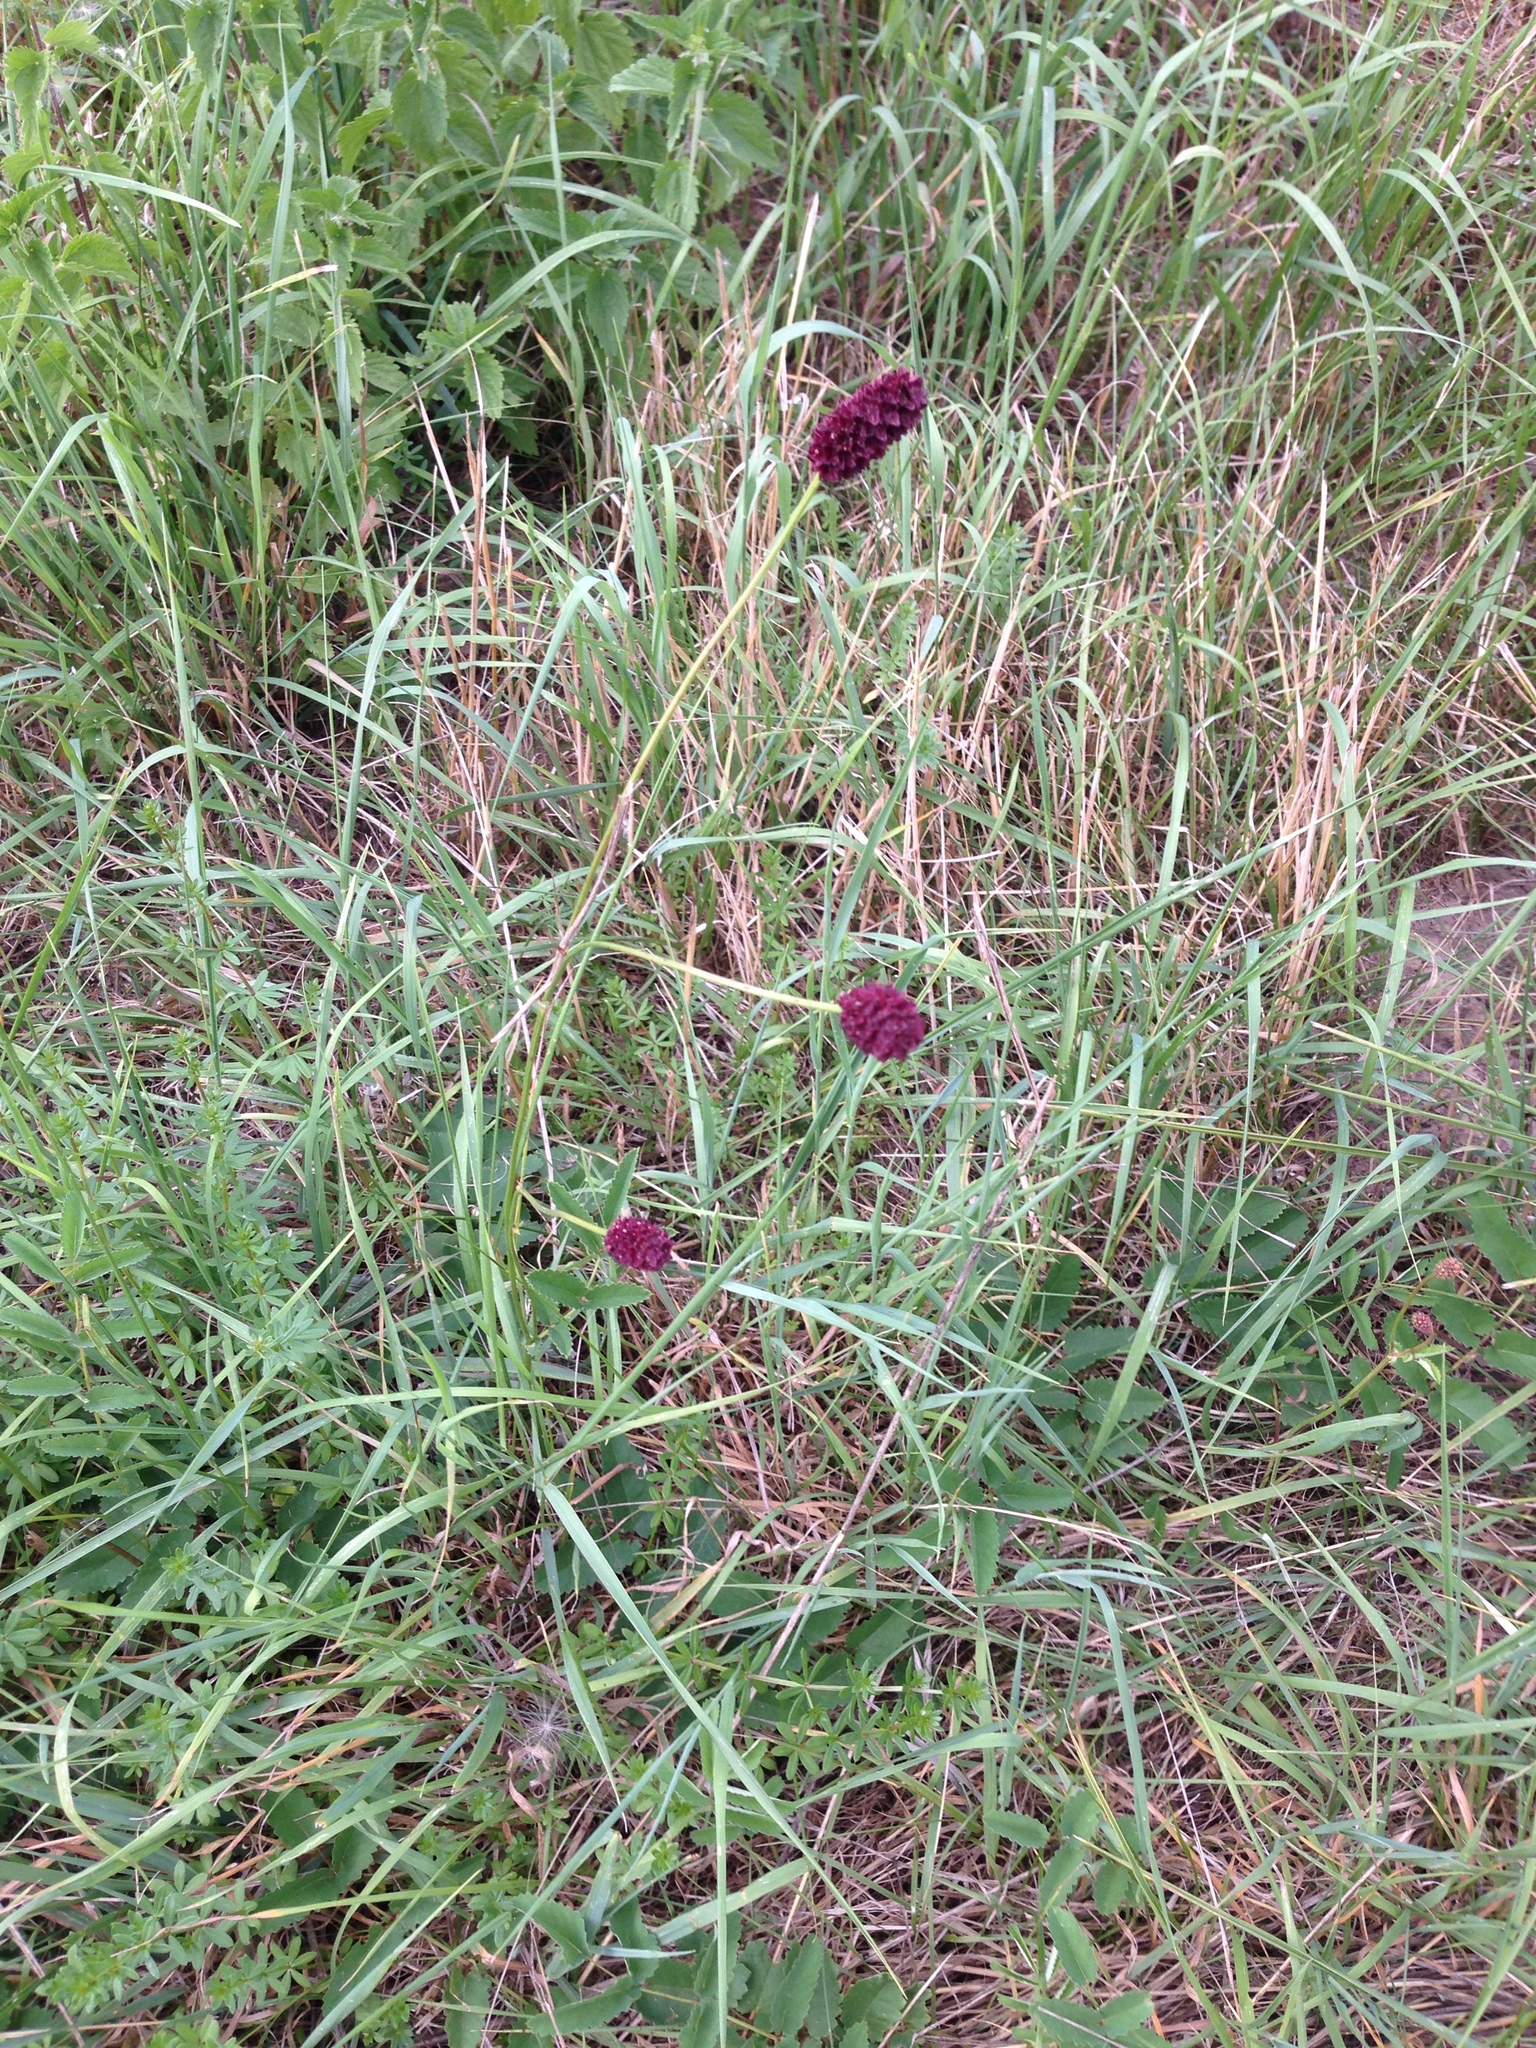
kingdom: Plantae
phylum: Tracheophyta
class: Magnoliopsida
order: Rosales
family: Rosaceae
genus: Sanguisorba
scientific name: Sanguisorba officinalis
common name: Great burnet
